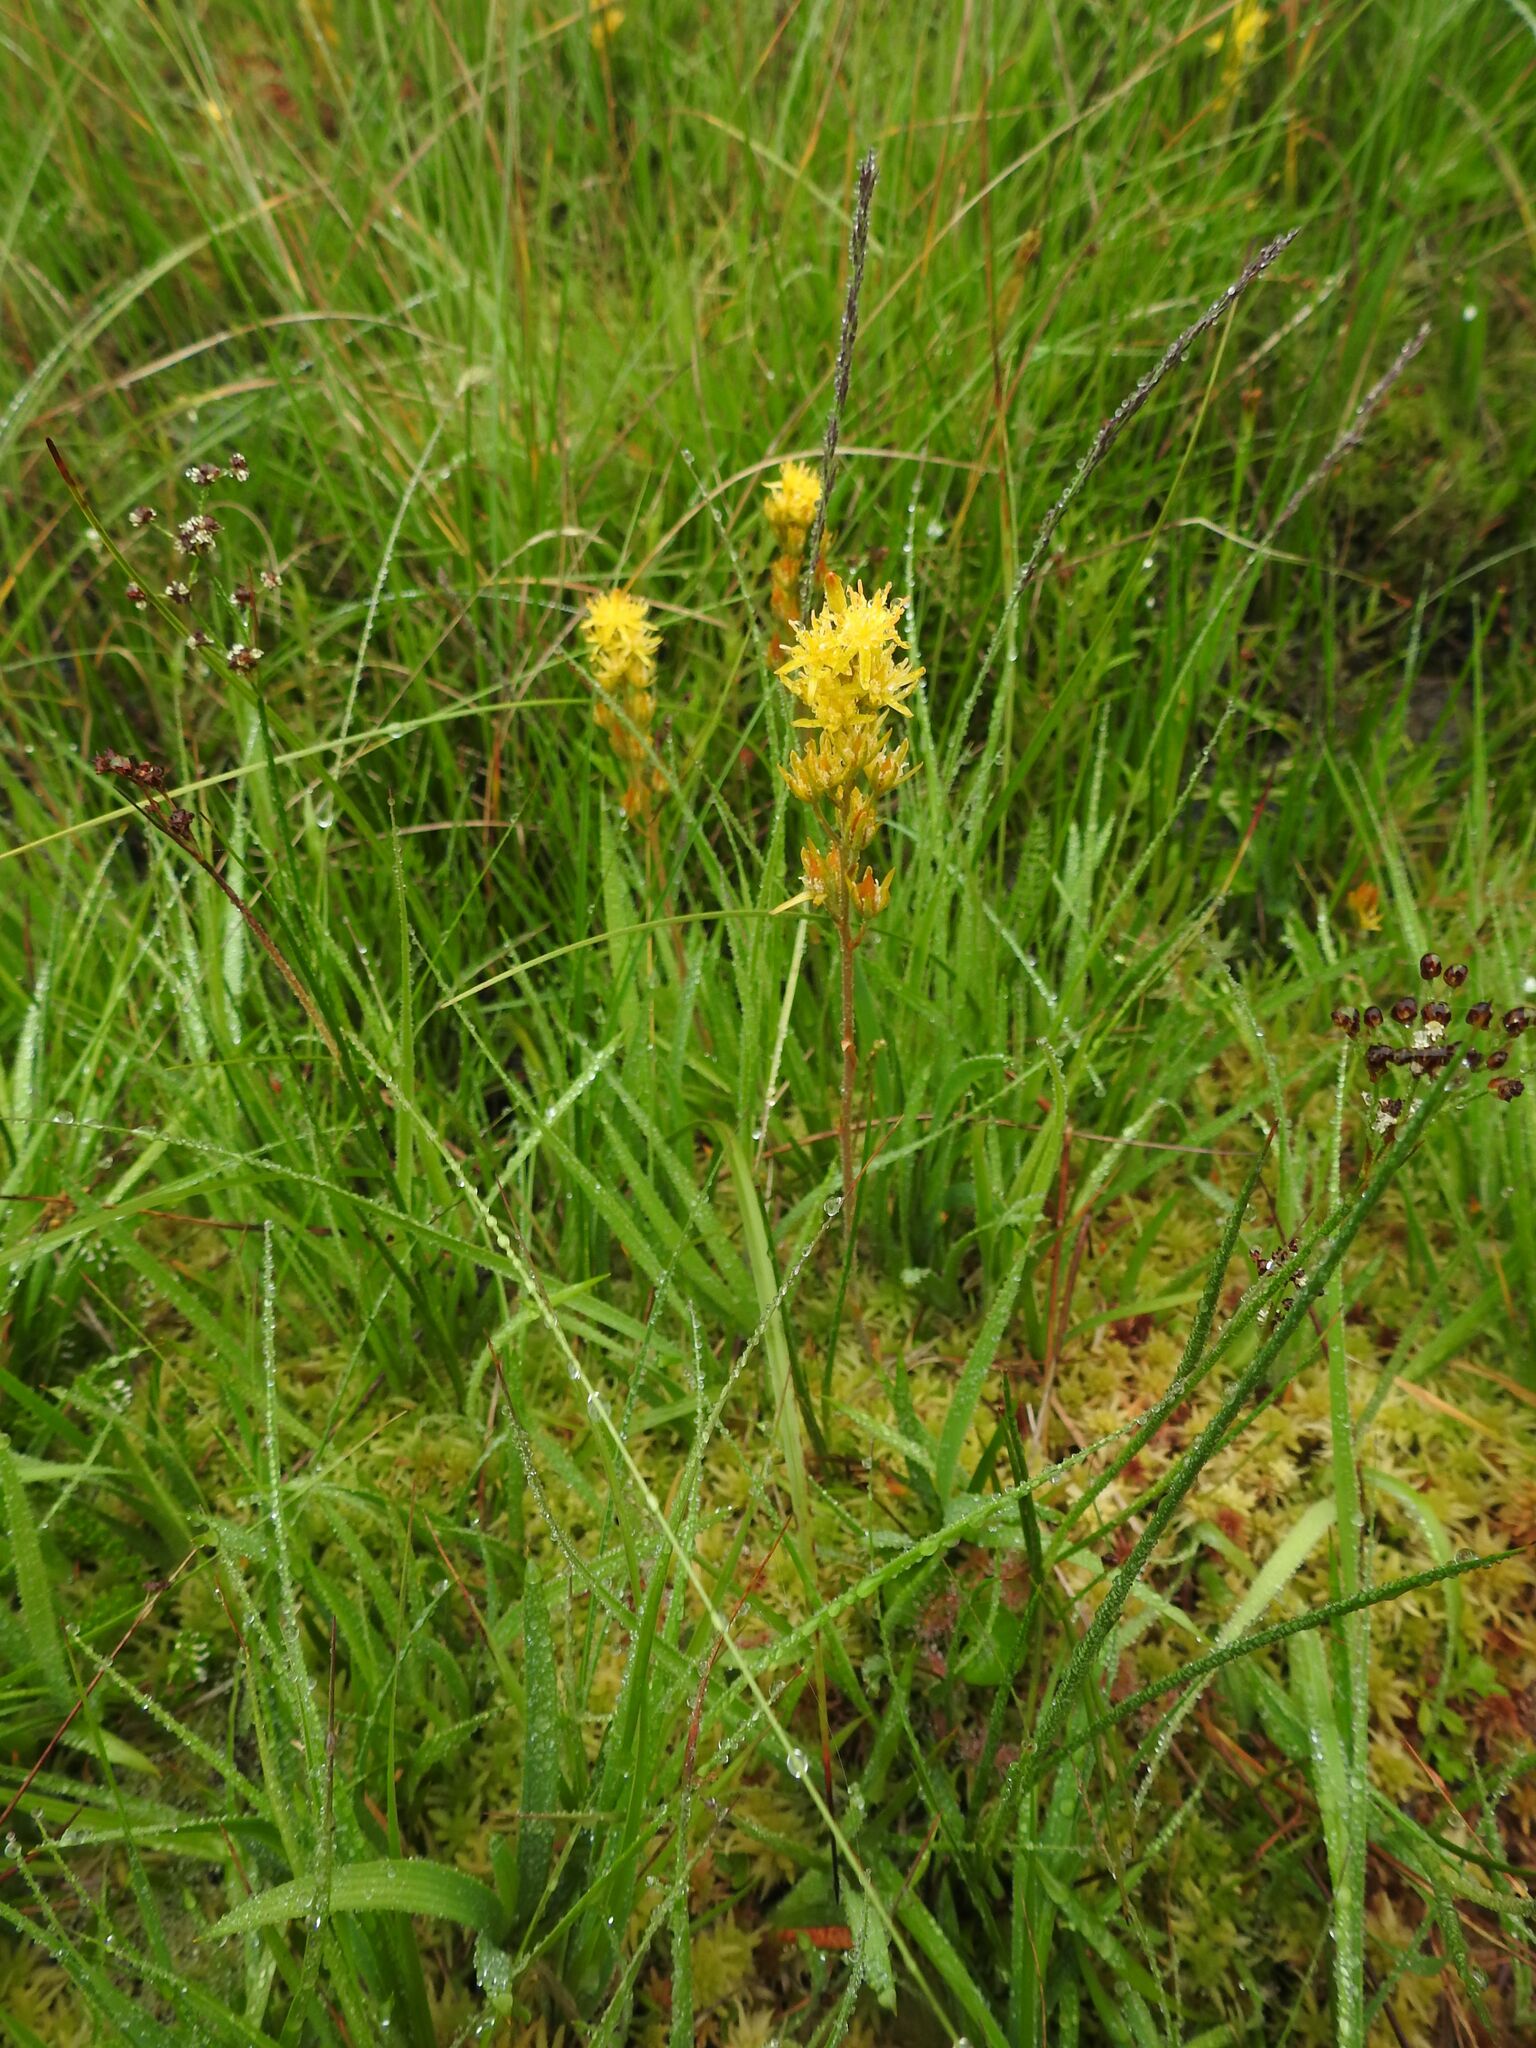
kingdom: Plantae
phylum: Tracheophyta
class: Liliopsida
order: Dioscoreales
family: Nartheciaceae
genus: Narthecium
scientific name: Narthecium ossifragum
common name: Bog asphodel
